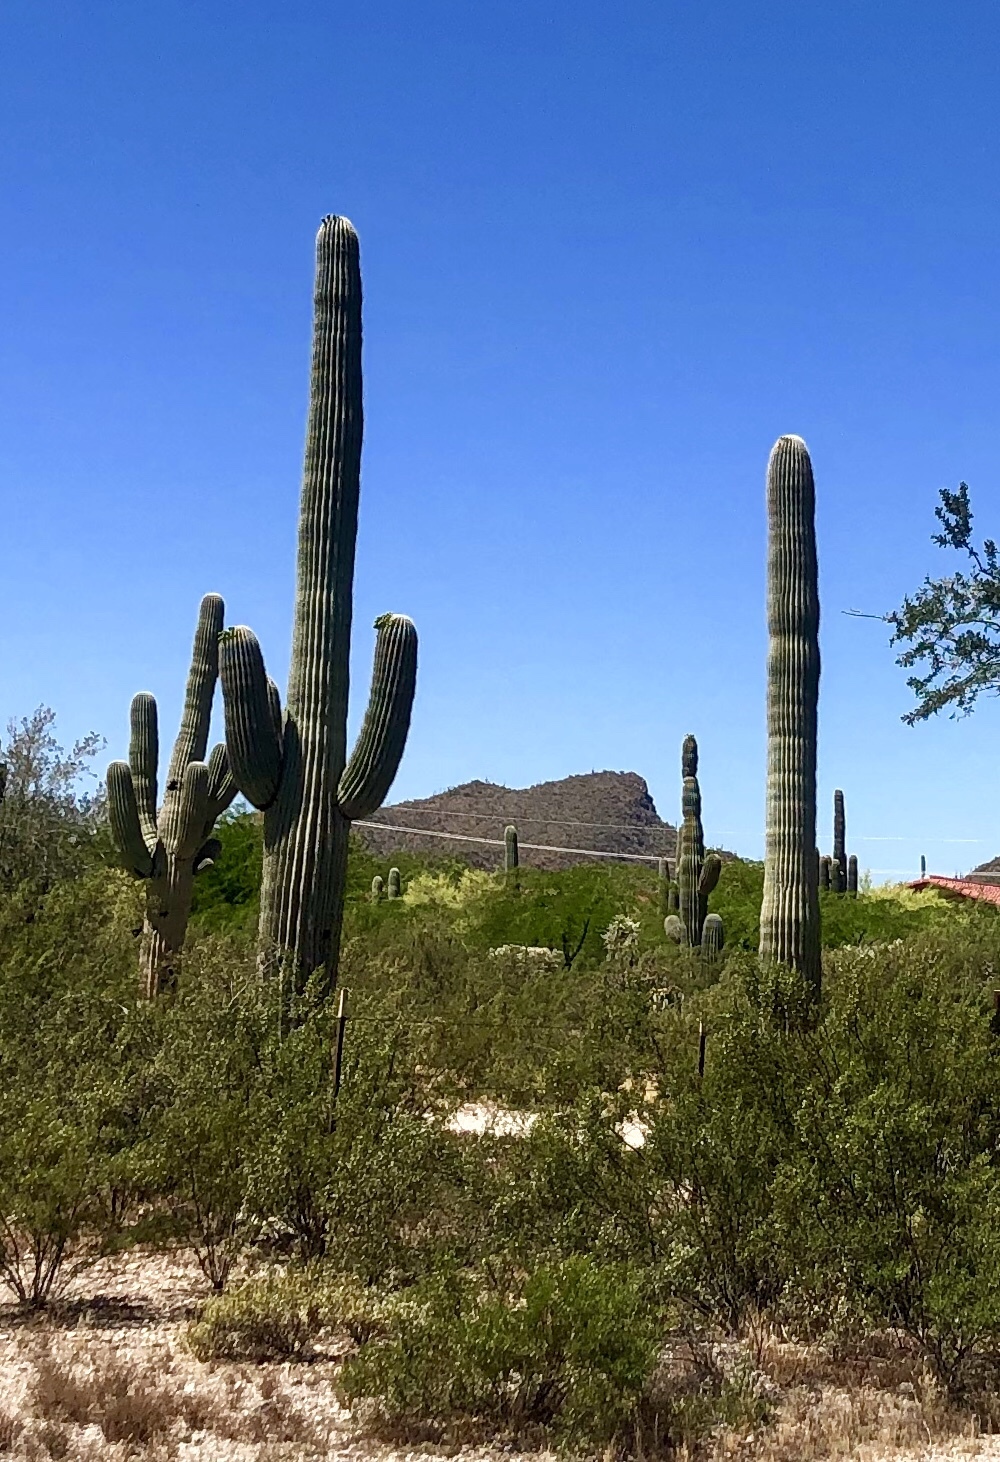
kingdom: Plantae
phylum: Tracheophyta
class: Magnoliopsida
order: Caryophyllales
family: Cactaceae
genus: Carnegiea
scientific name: Carnegiea gigantea
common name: Saguaro
